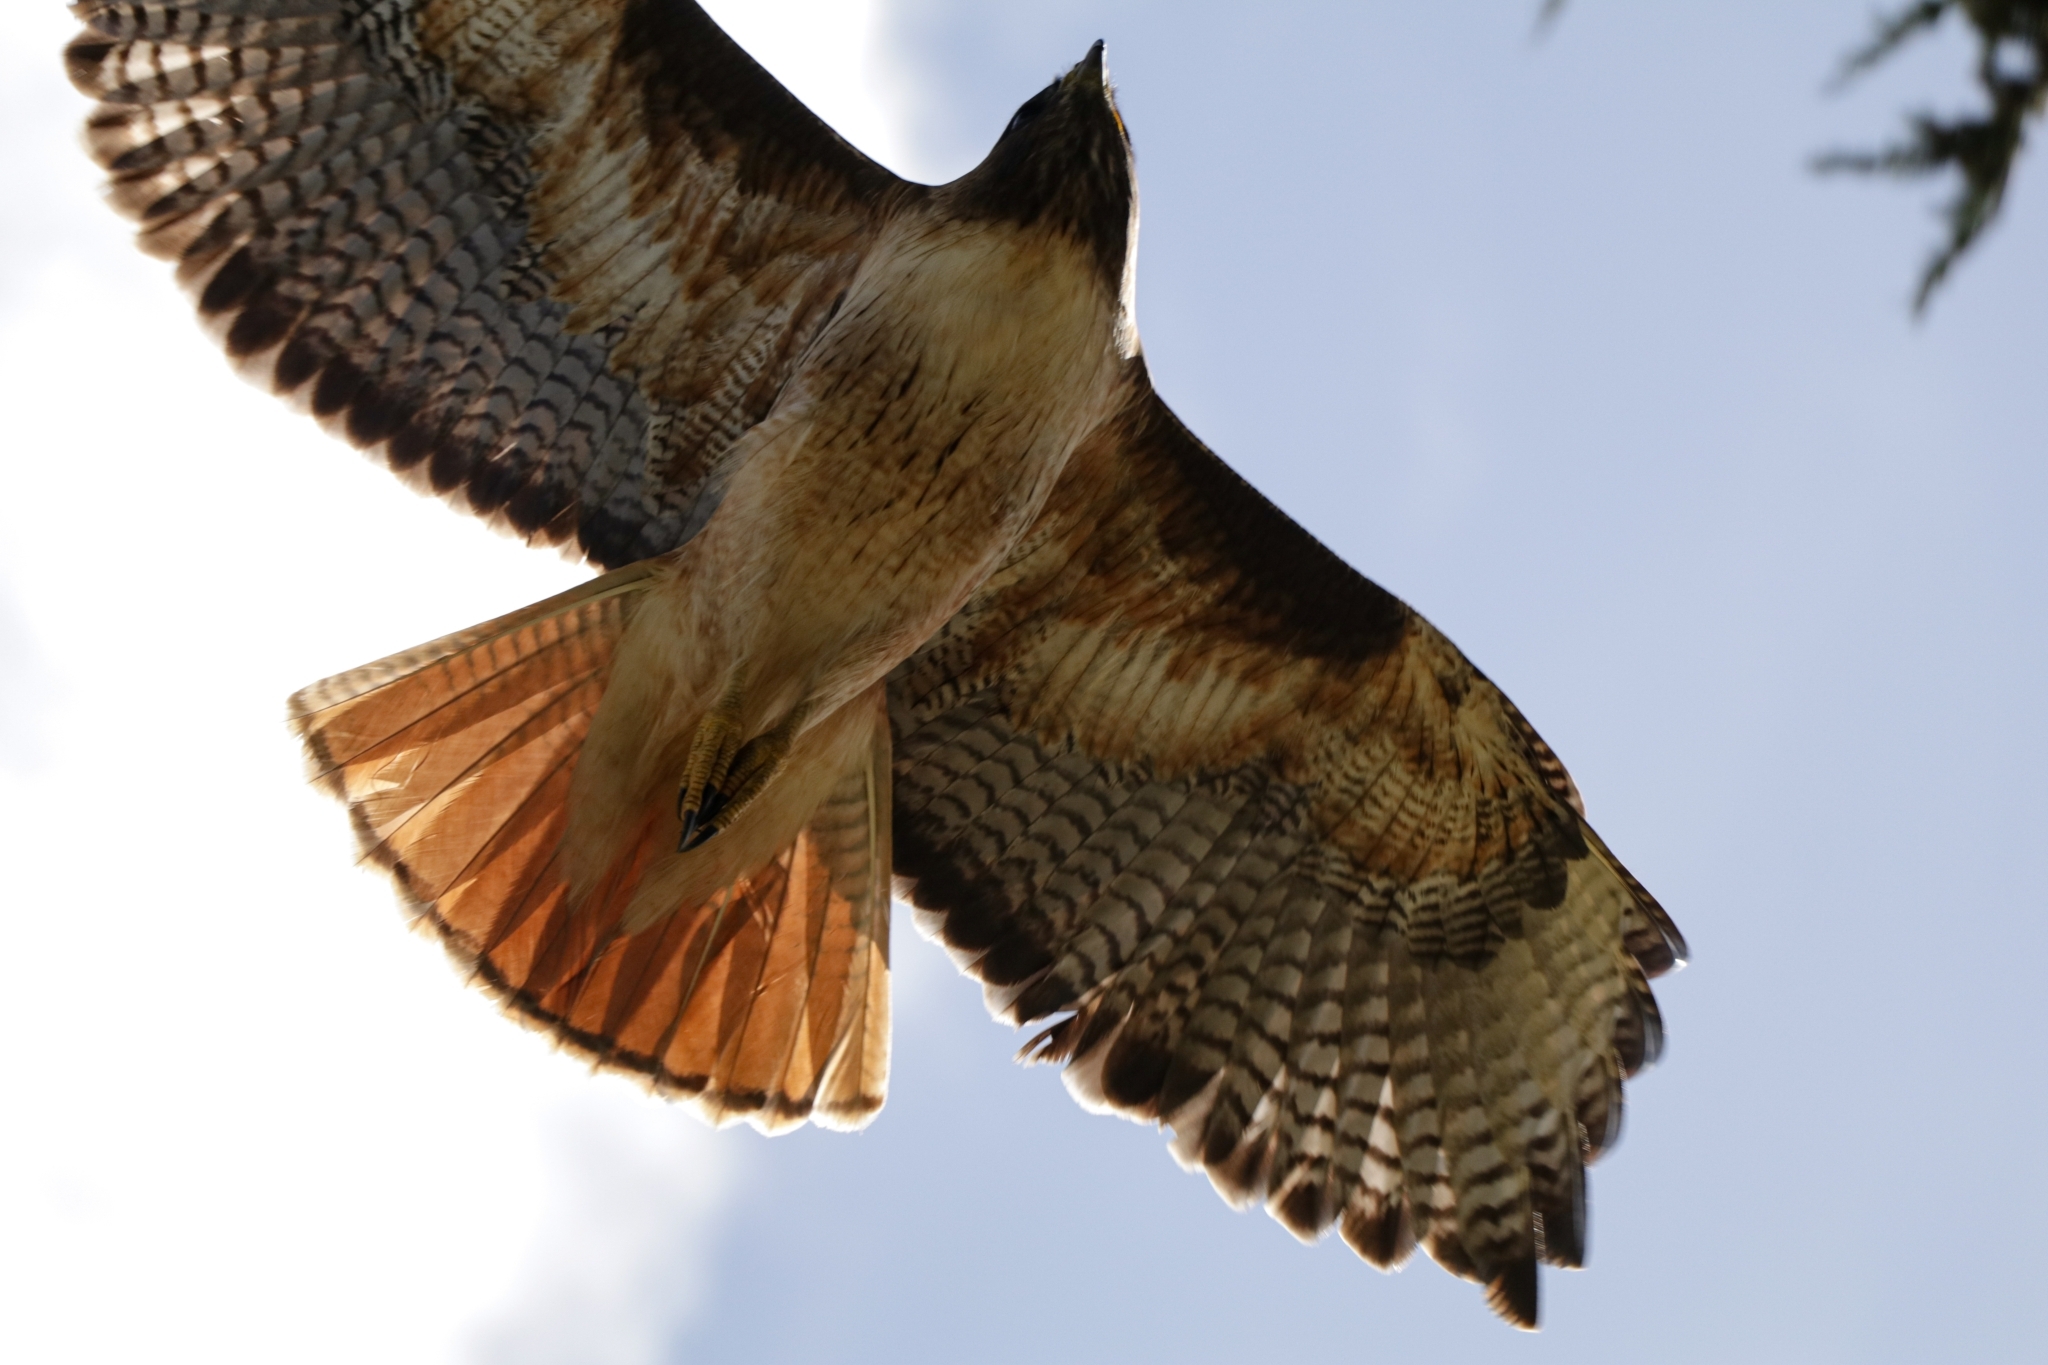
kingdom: Animalia
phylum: Chordata
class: Aves
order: Accipitriformes
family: Accipitridae
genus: Buteo
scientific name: Buteo jamaicensis
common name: Red-tailed hawk
